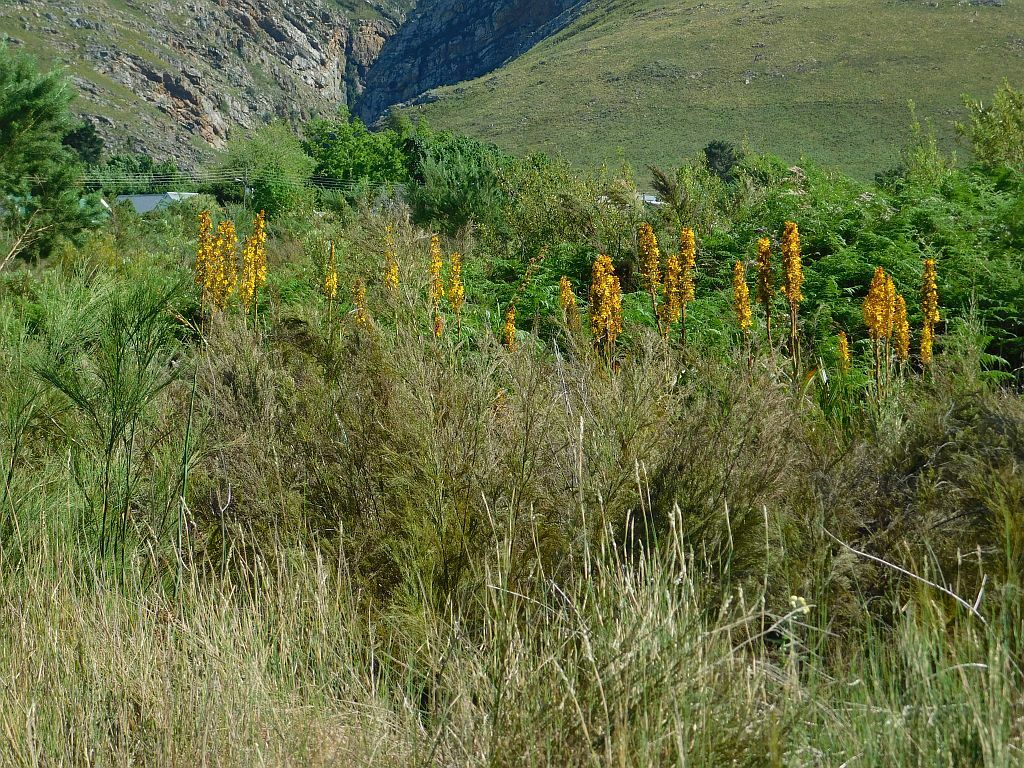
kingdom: Plantae
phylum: Tracheophyta
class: Liliopsida
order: Commelinales
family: Haemodoraceae
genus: Wachendorfia
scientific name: Wachendorfia thyrsiflora
